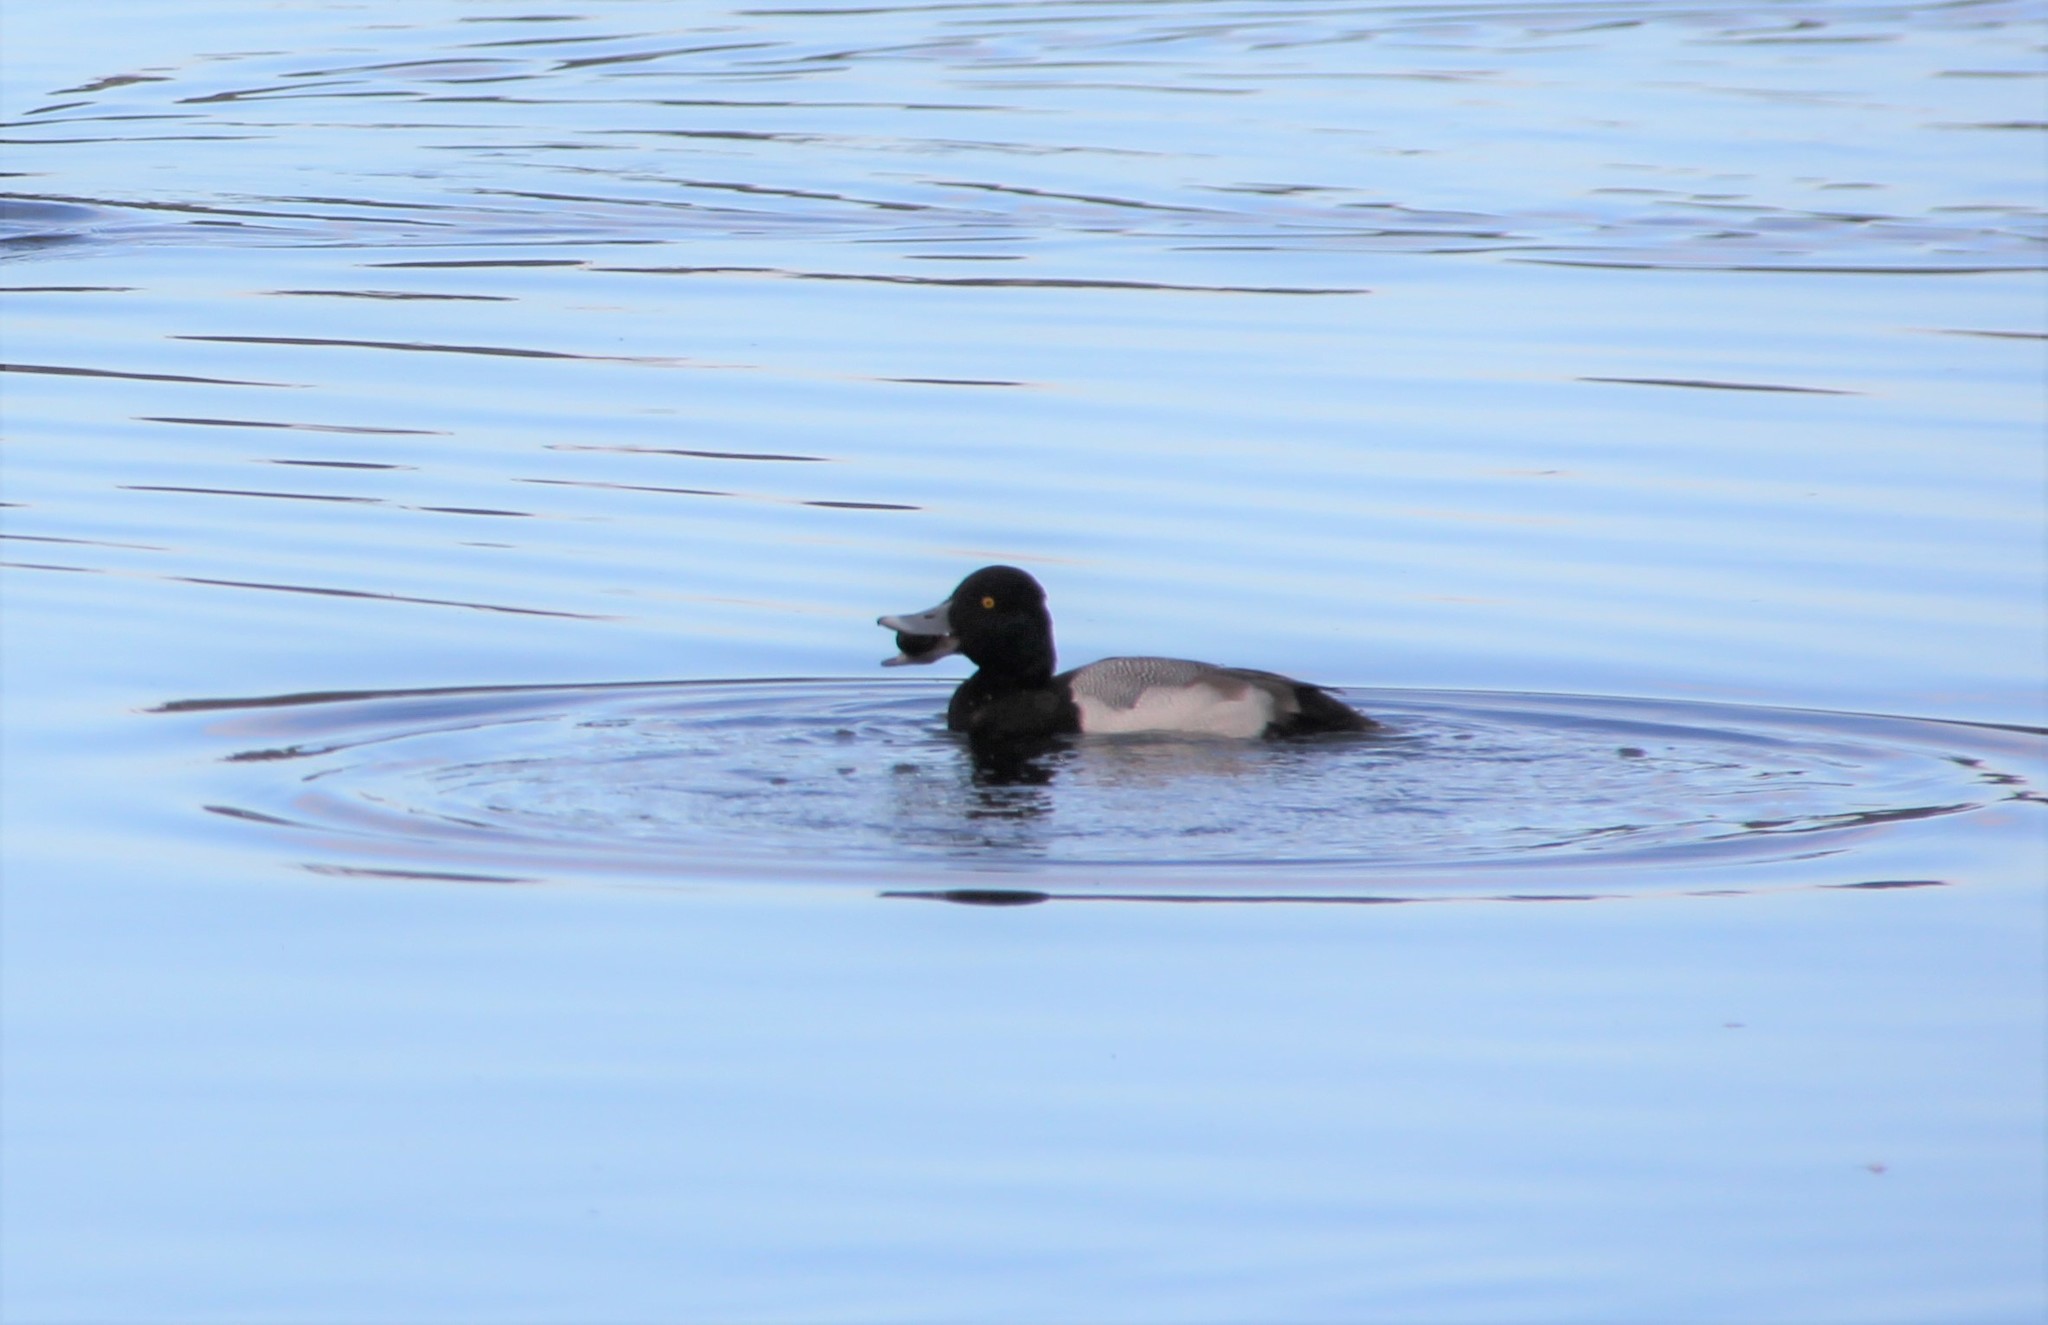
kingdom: Animalia
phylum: Chordata
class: Aves
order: Anseriformes
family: Anatidae
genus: Aythya
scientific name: Aythya affinis
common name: Lesser scaup
